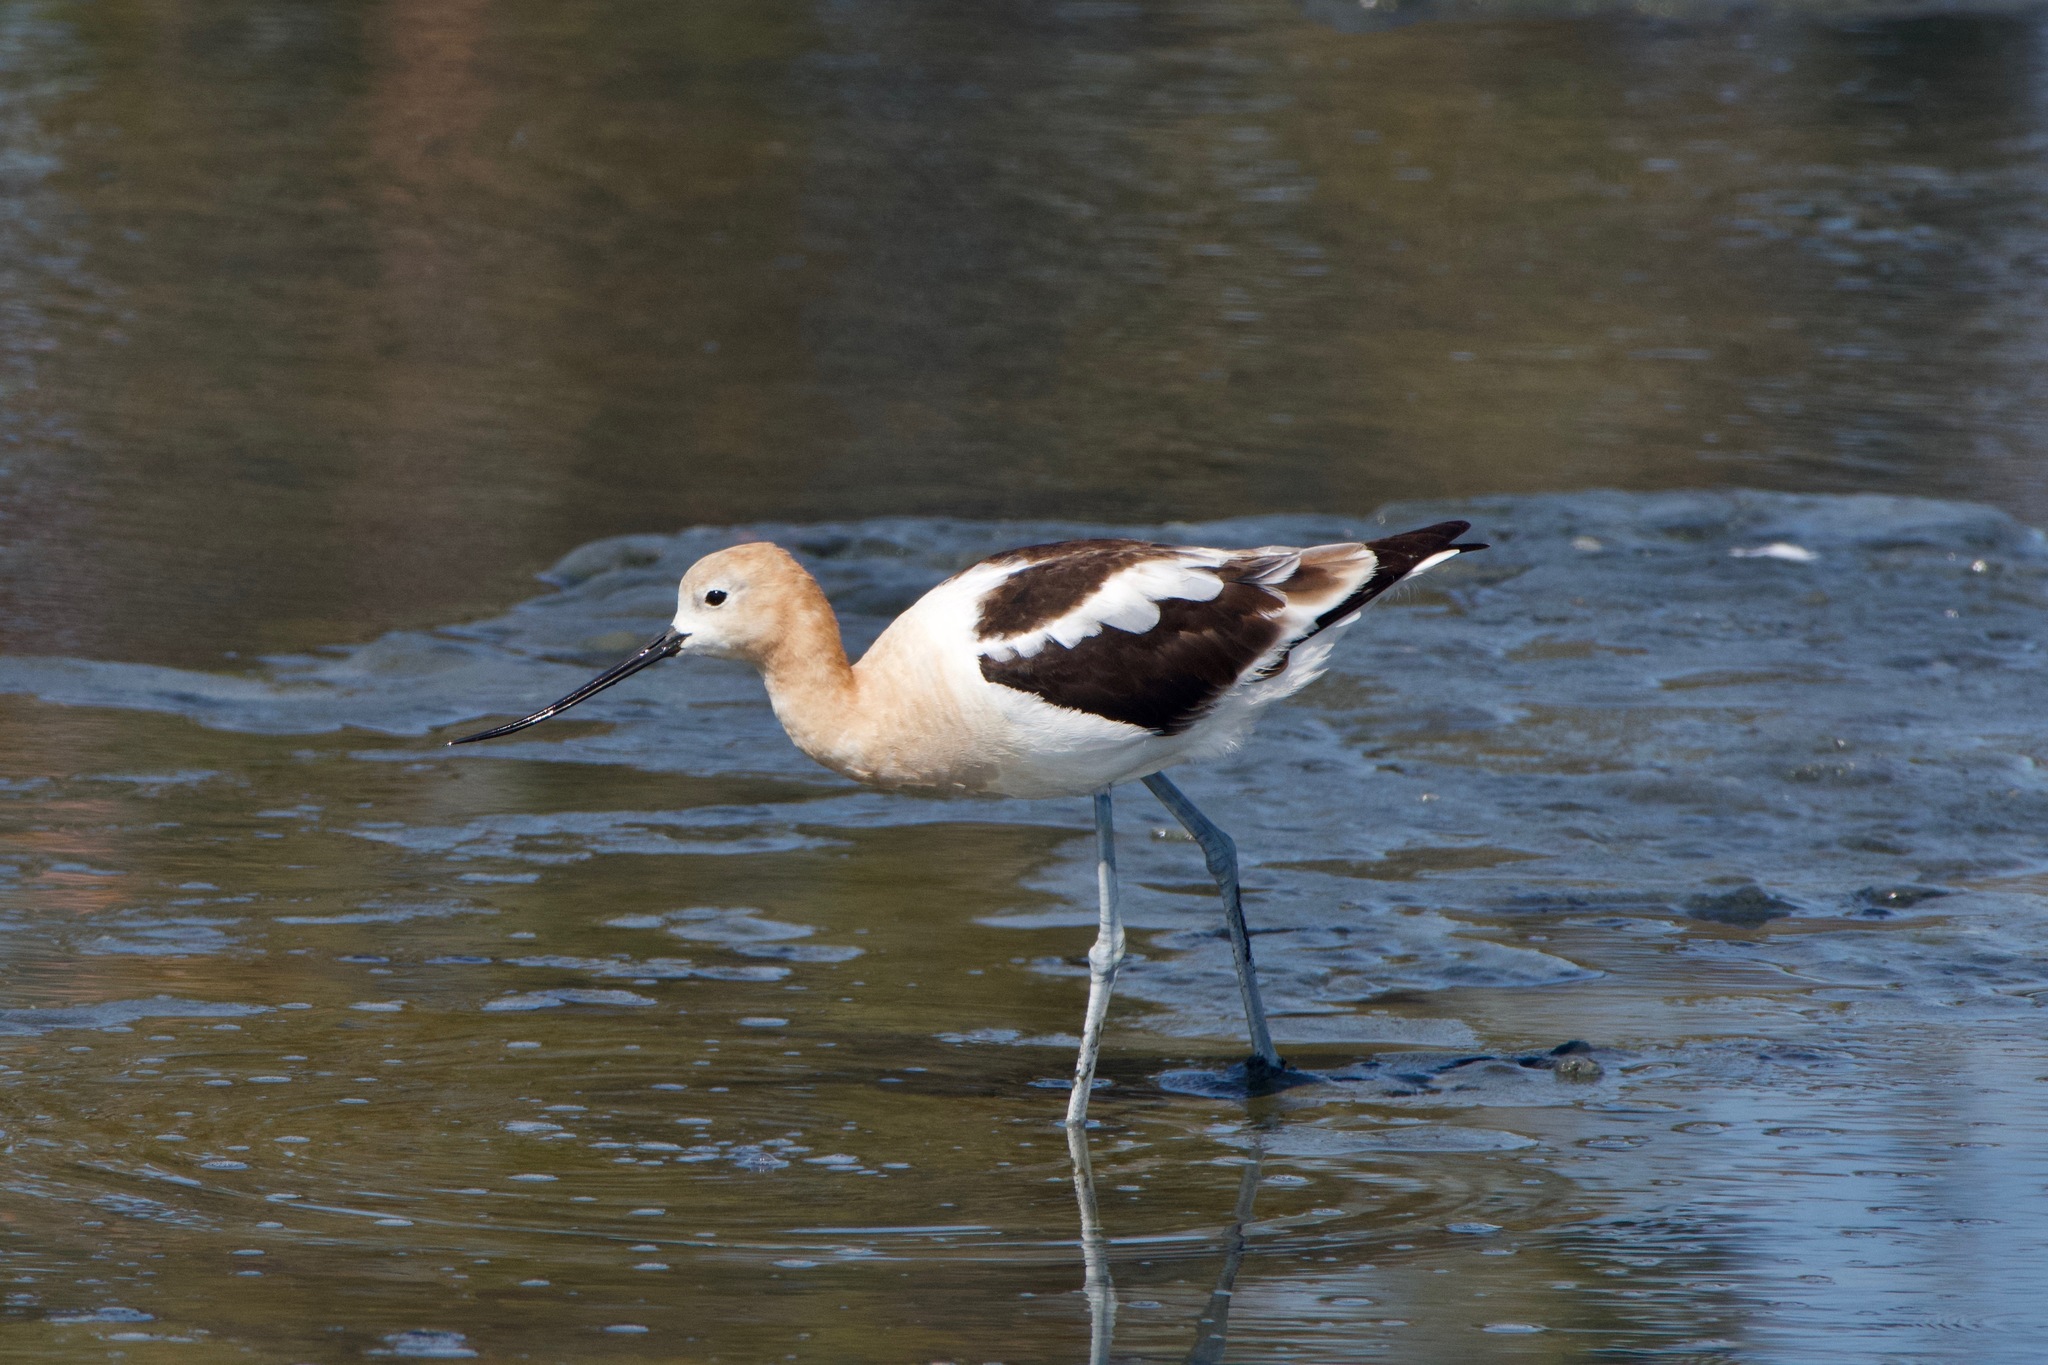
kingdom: Animalia
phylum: Chordata
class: Aves
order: Charadriiformes
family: Recurvirostridae
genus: Recurvirostra
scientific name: Recurvirostra americana
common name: American avocet
